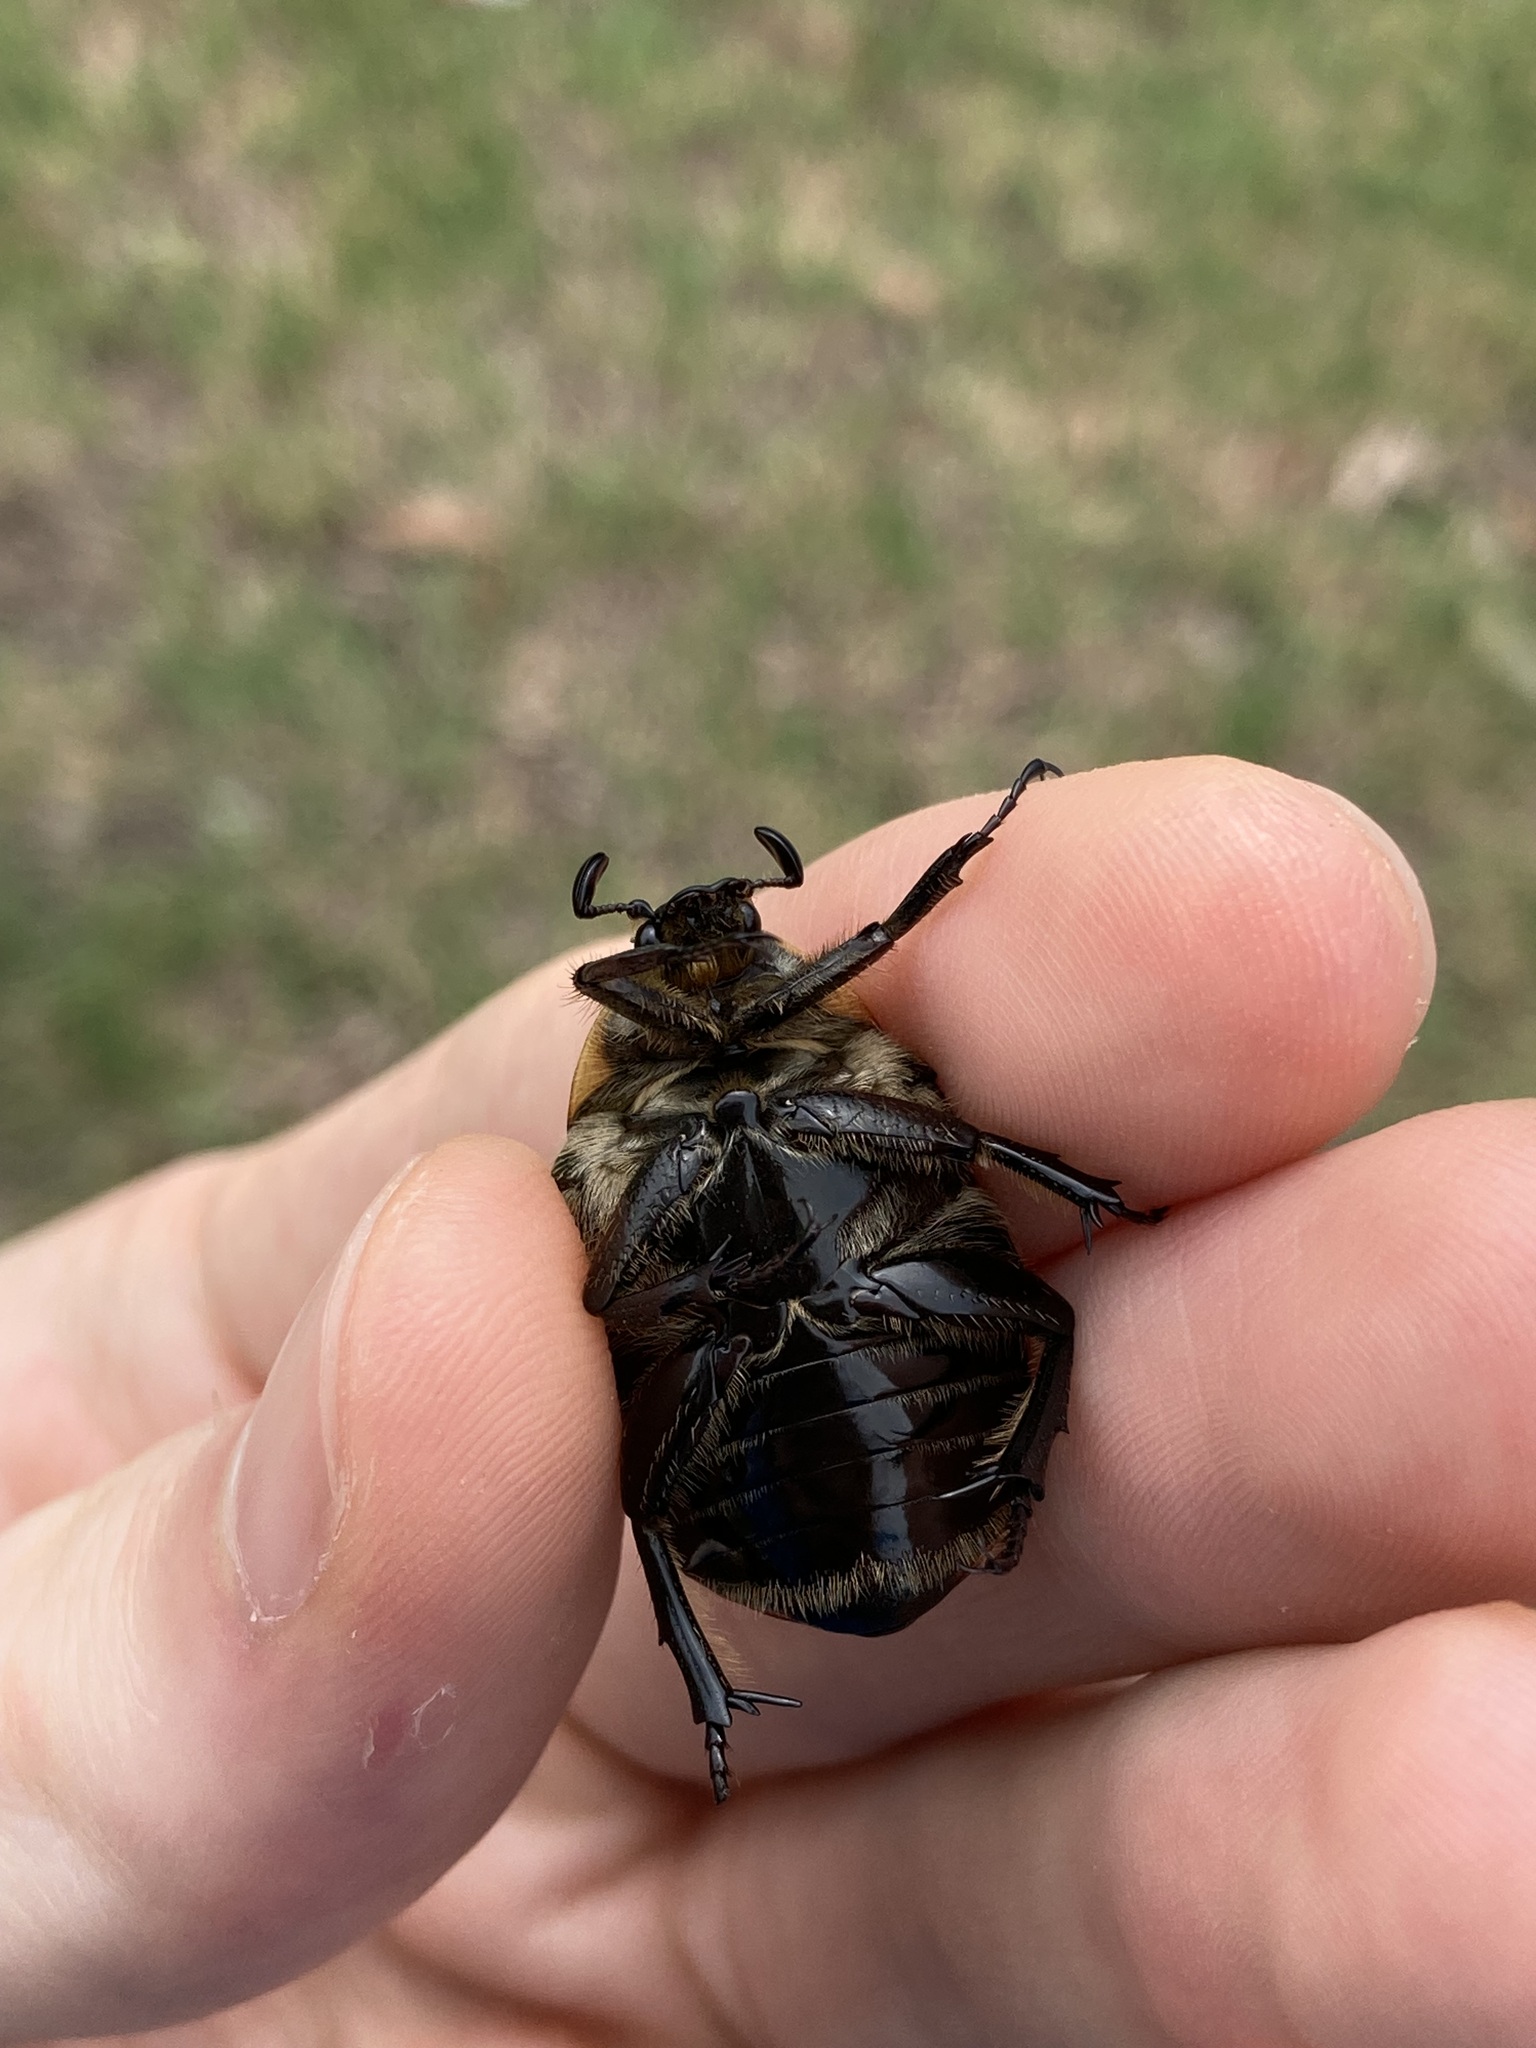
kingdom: Animalia
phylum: Arthropoda
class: Insecta
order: Coleoptera
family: Scarabaeidae
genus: Chondropyga
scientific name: Chondropyga dorsalis
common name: Cowboy beetle
